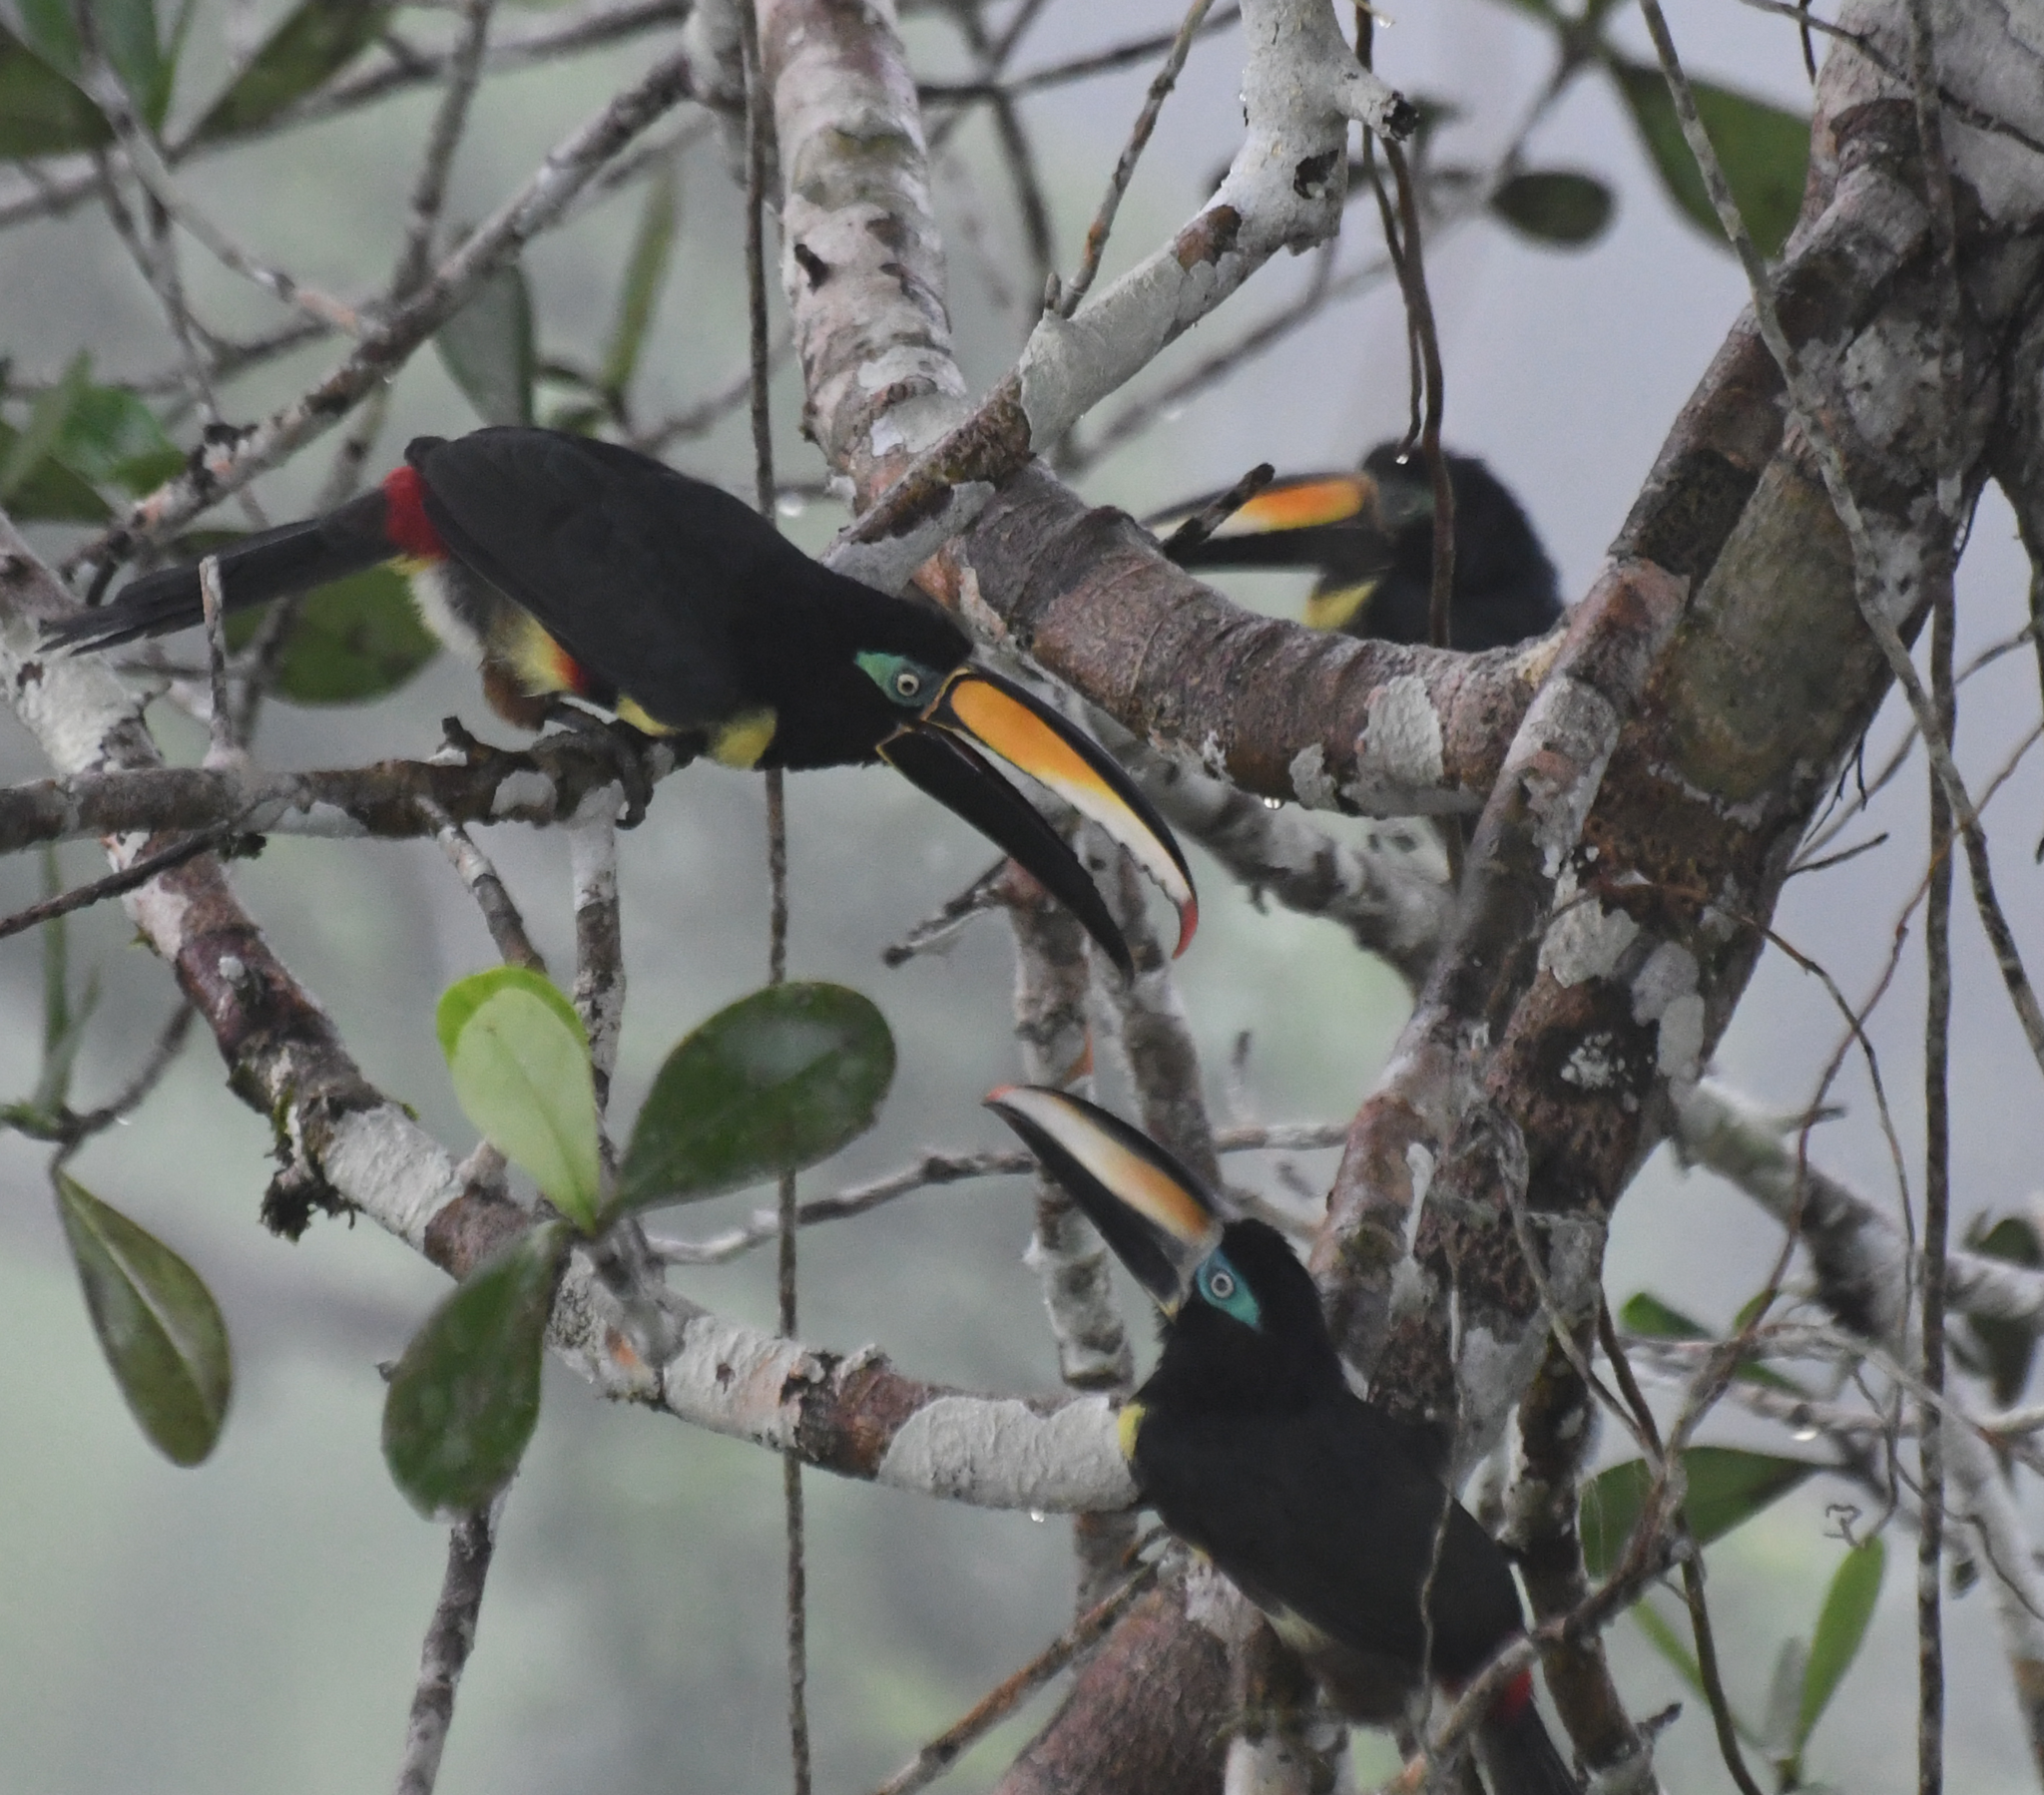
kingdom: Animalia
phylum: Chordata
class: Aves
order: Piciformes
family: Ramphastidae
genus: Pteroglossus
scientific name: Pteroglossus pluricinctus
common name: Many-banded aracari
